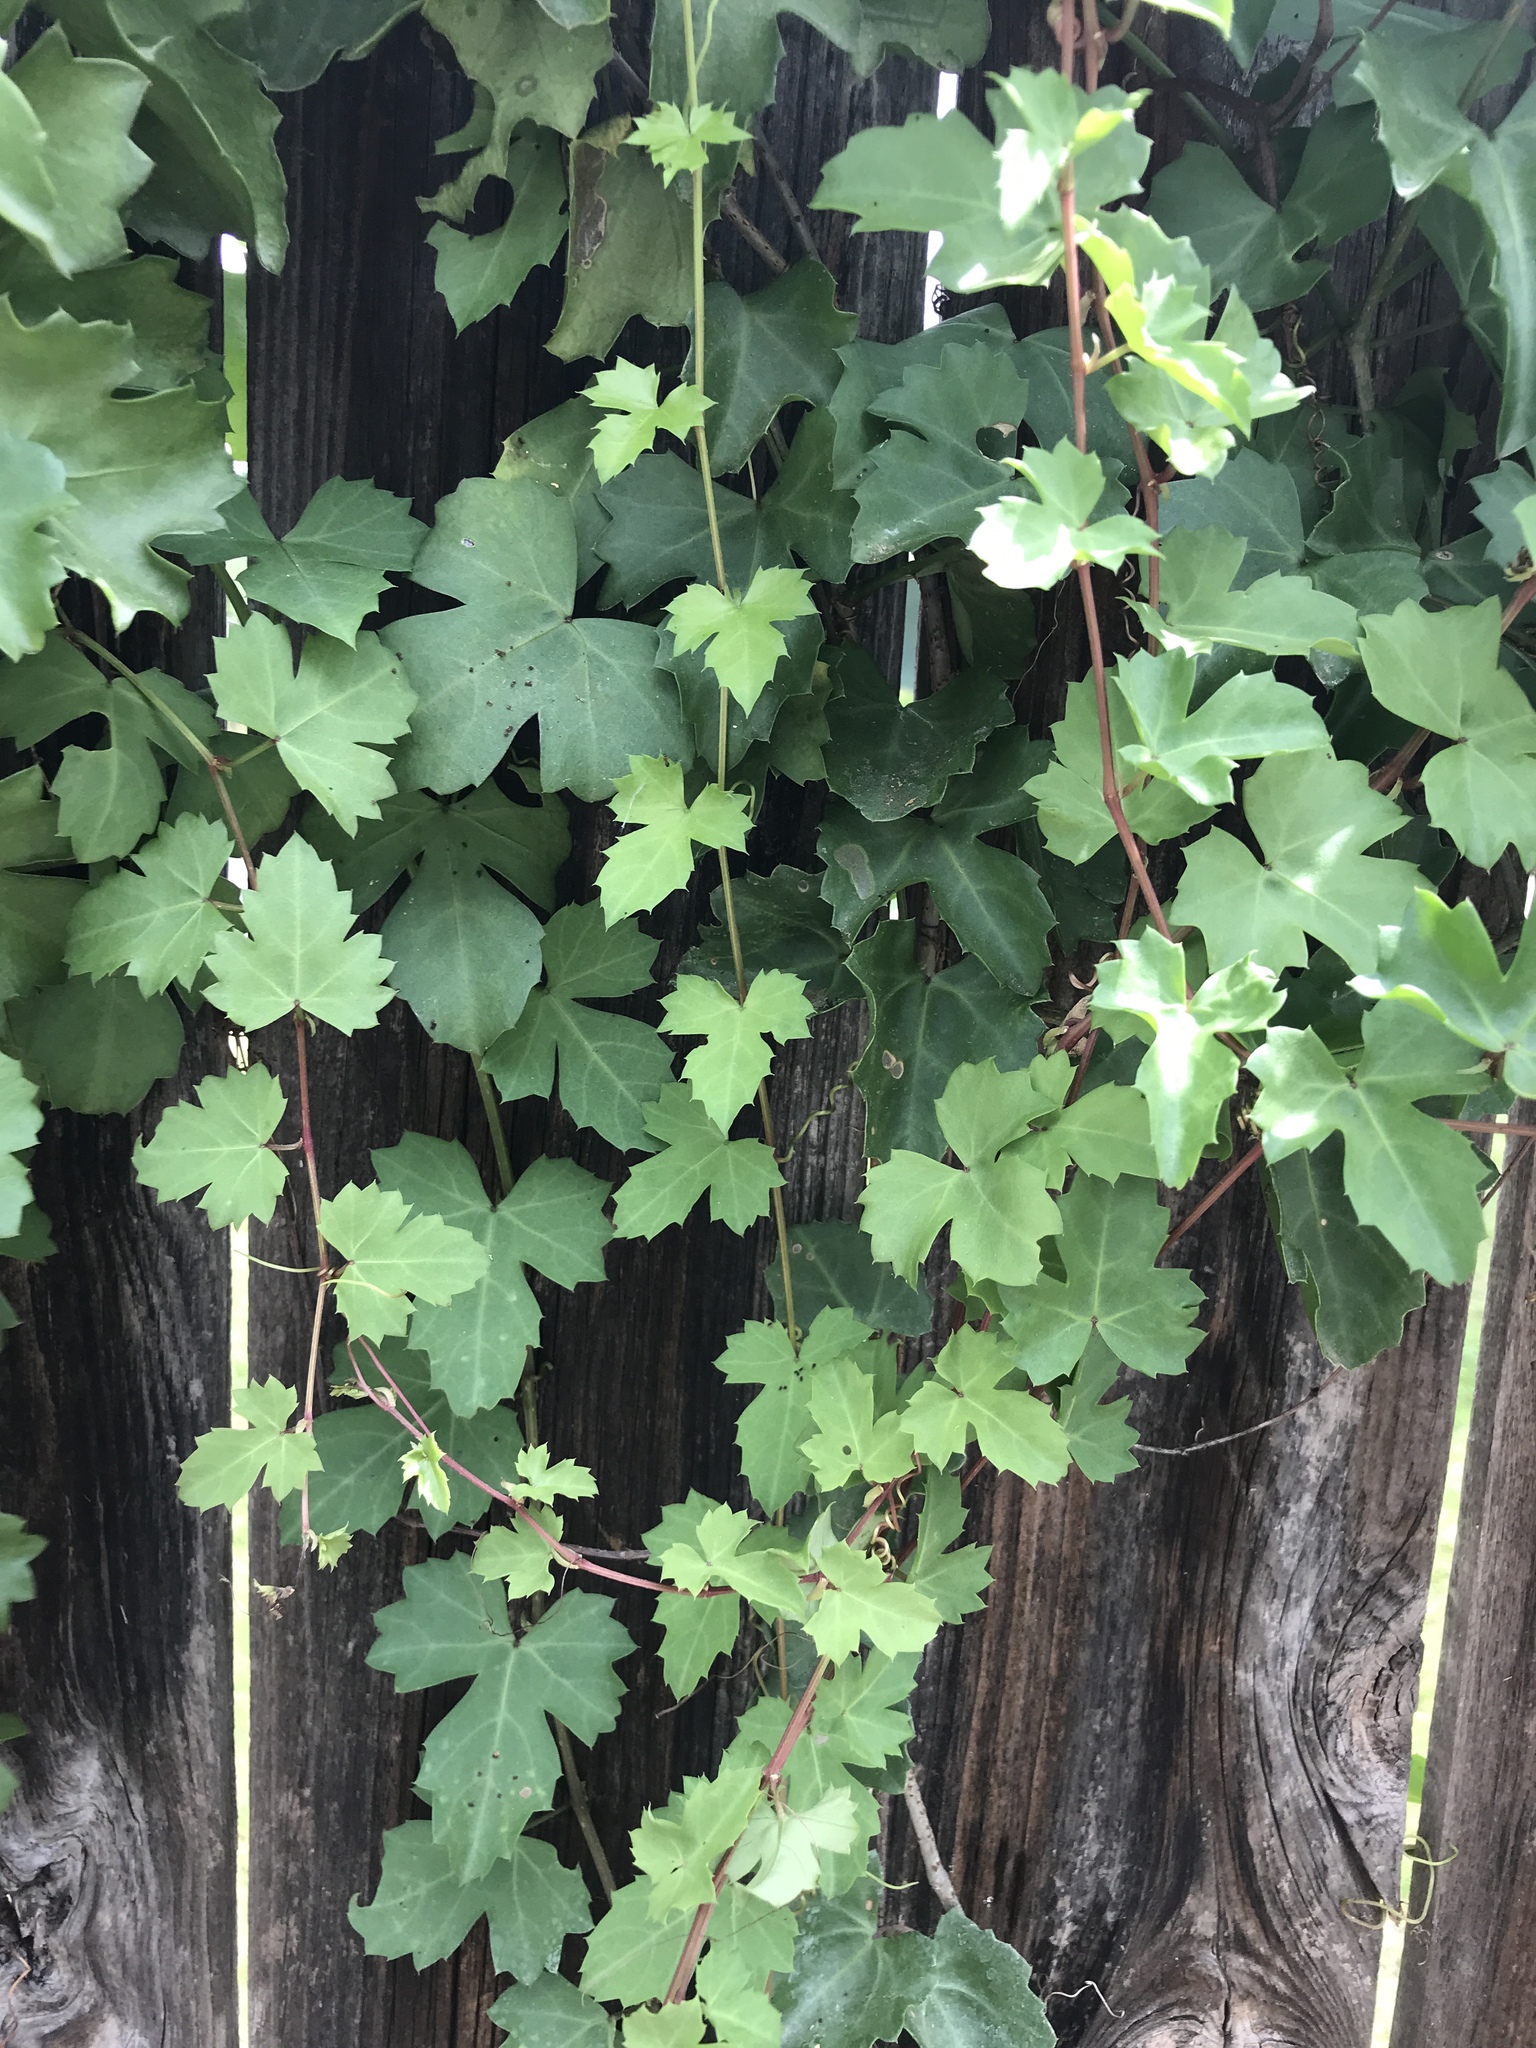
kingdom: Plantae
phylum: Tracheophyta
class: Magnoliopsida
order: Vitales
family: Vitaceae
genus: Cissus
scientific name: Cissus trifoliata
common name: Vine-sorrel
